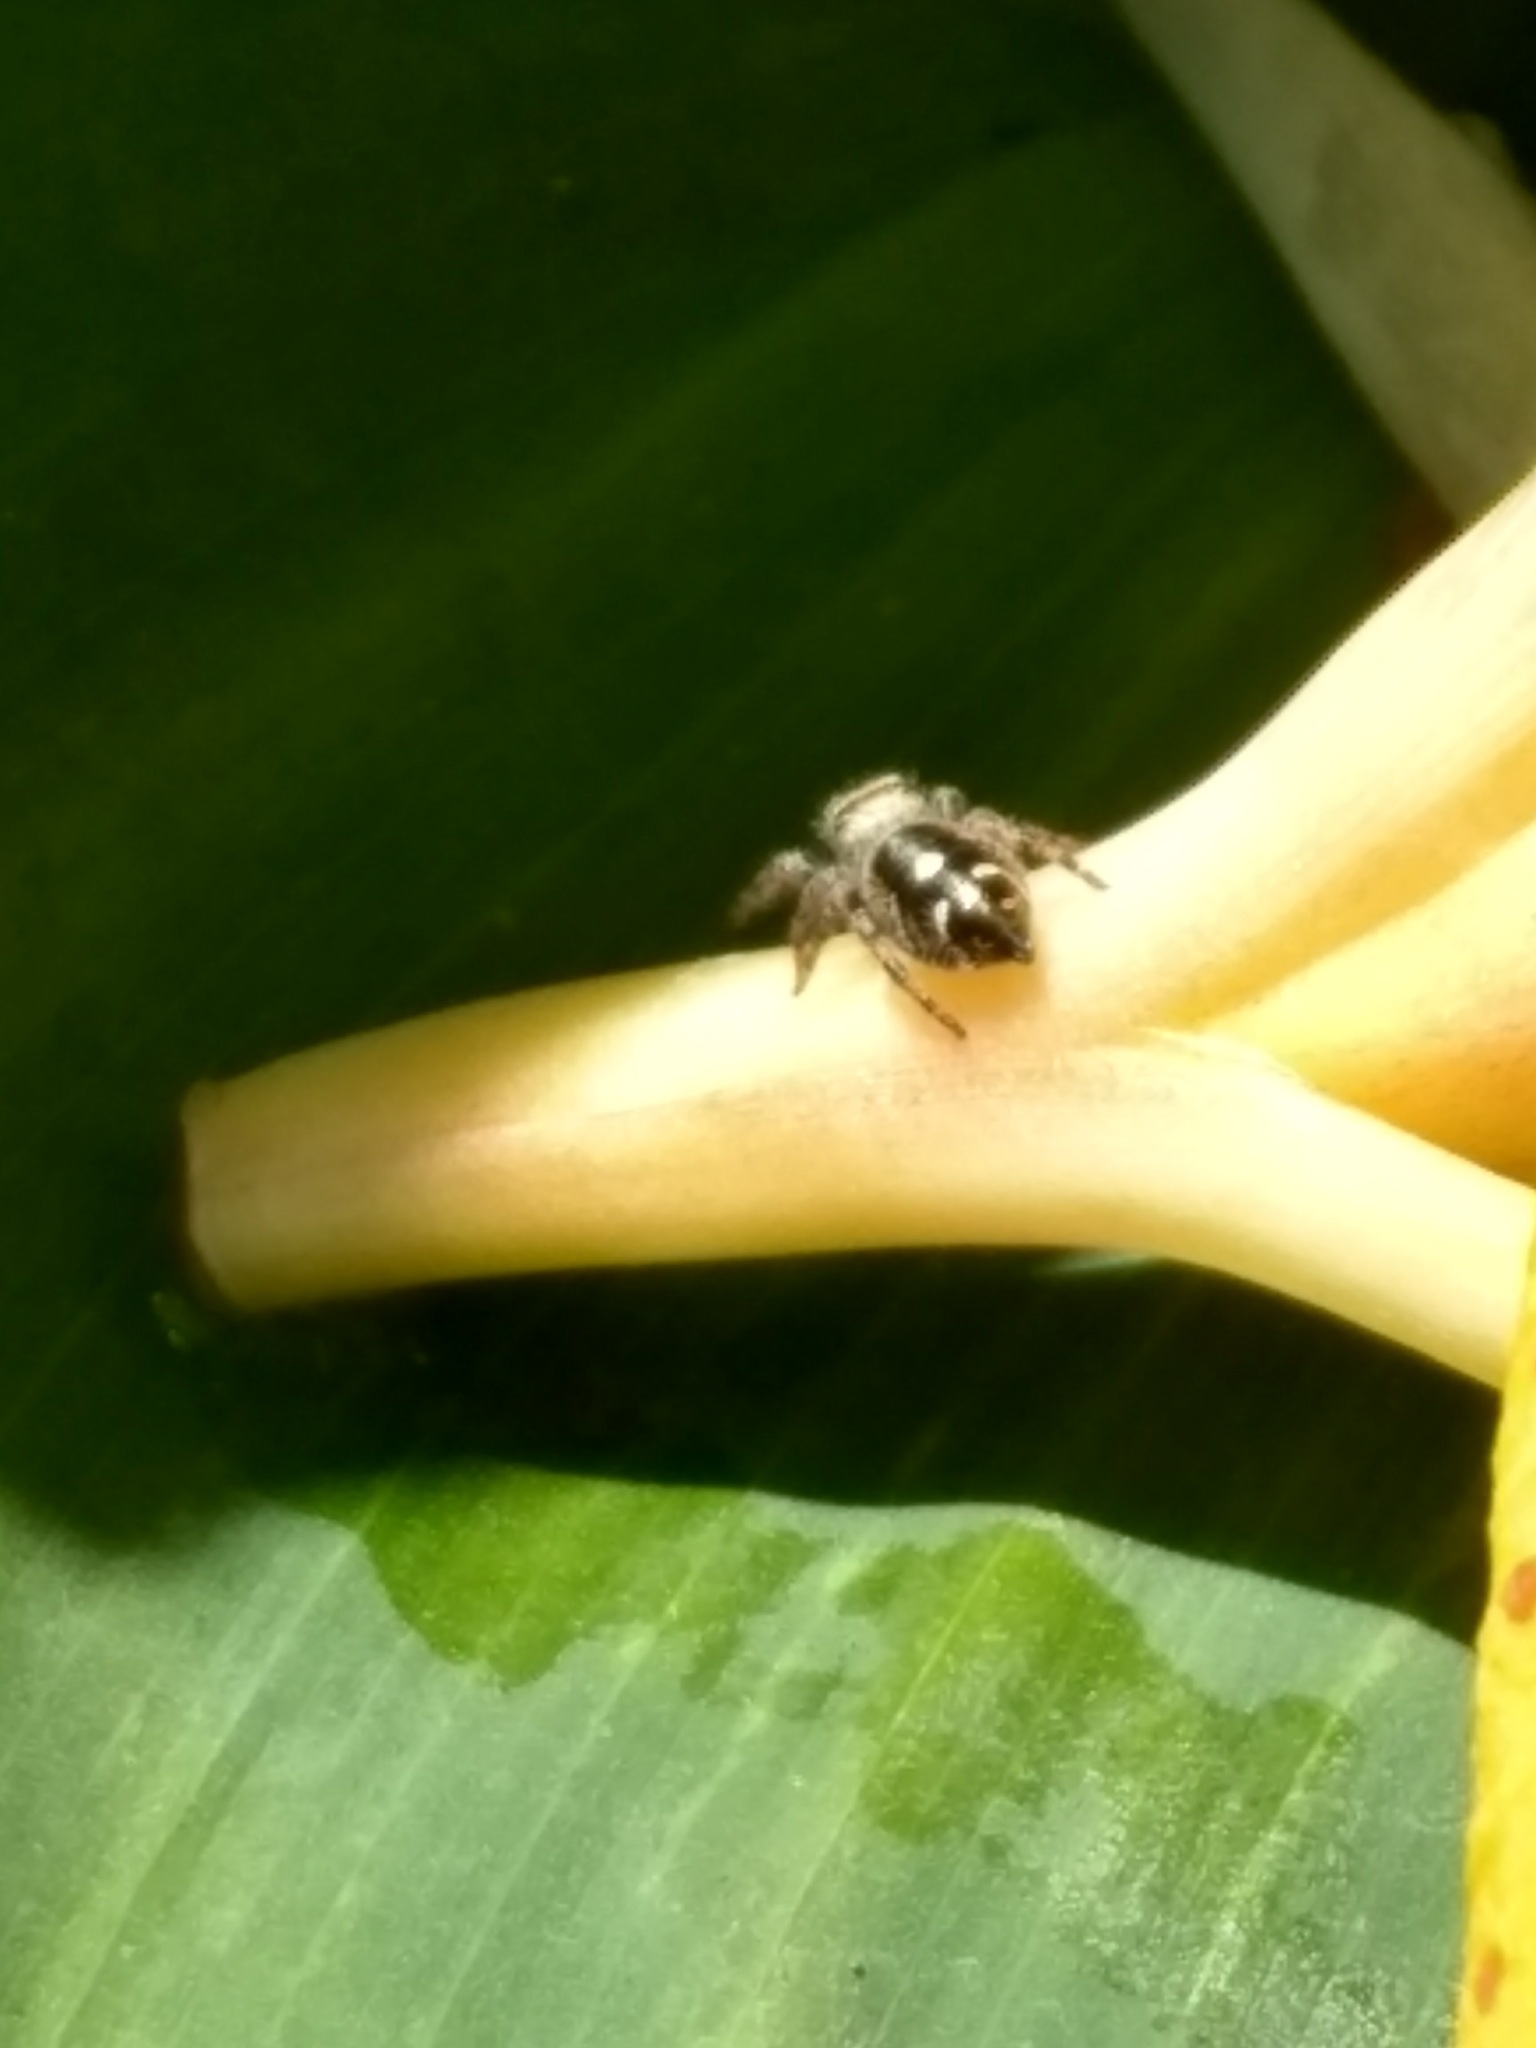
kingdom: Animalia
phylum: Arthropoda
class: Arachnida
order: Araneae
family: Salticidae
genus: Phidippus
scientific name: Phidippus audax
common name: Bold jumper
